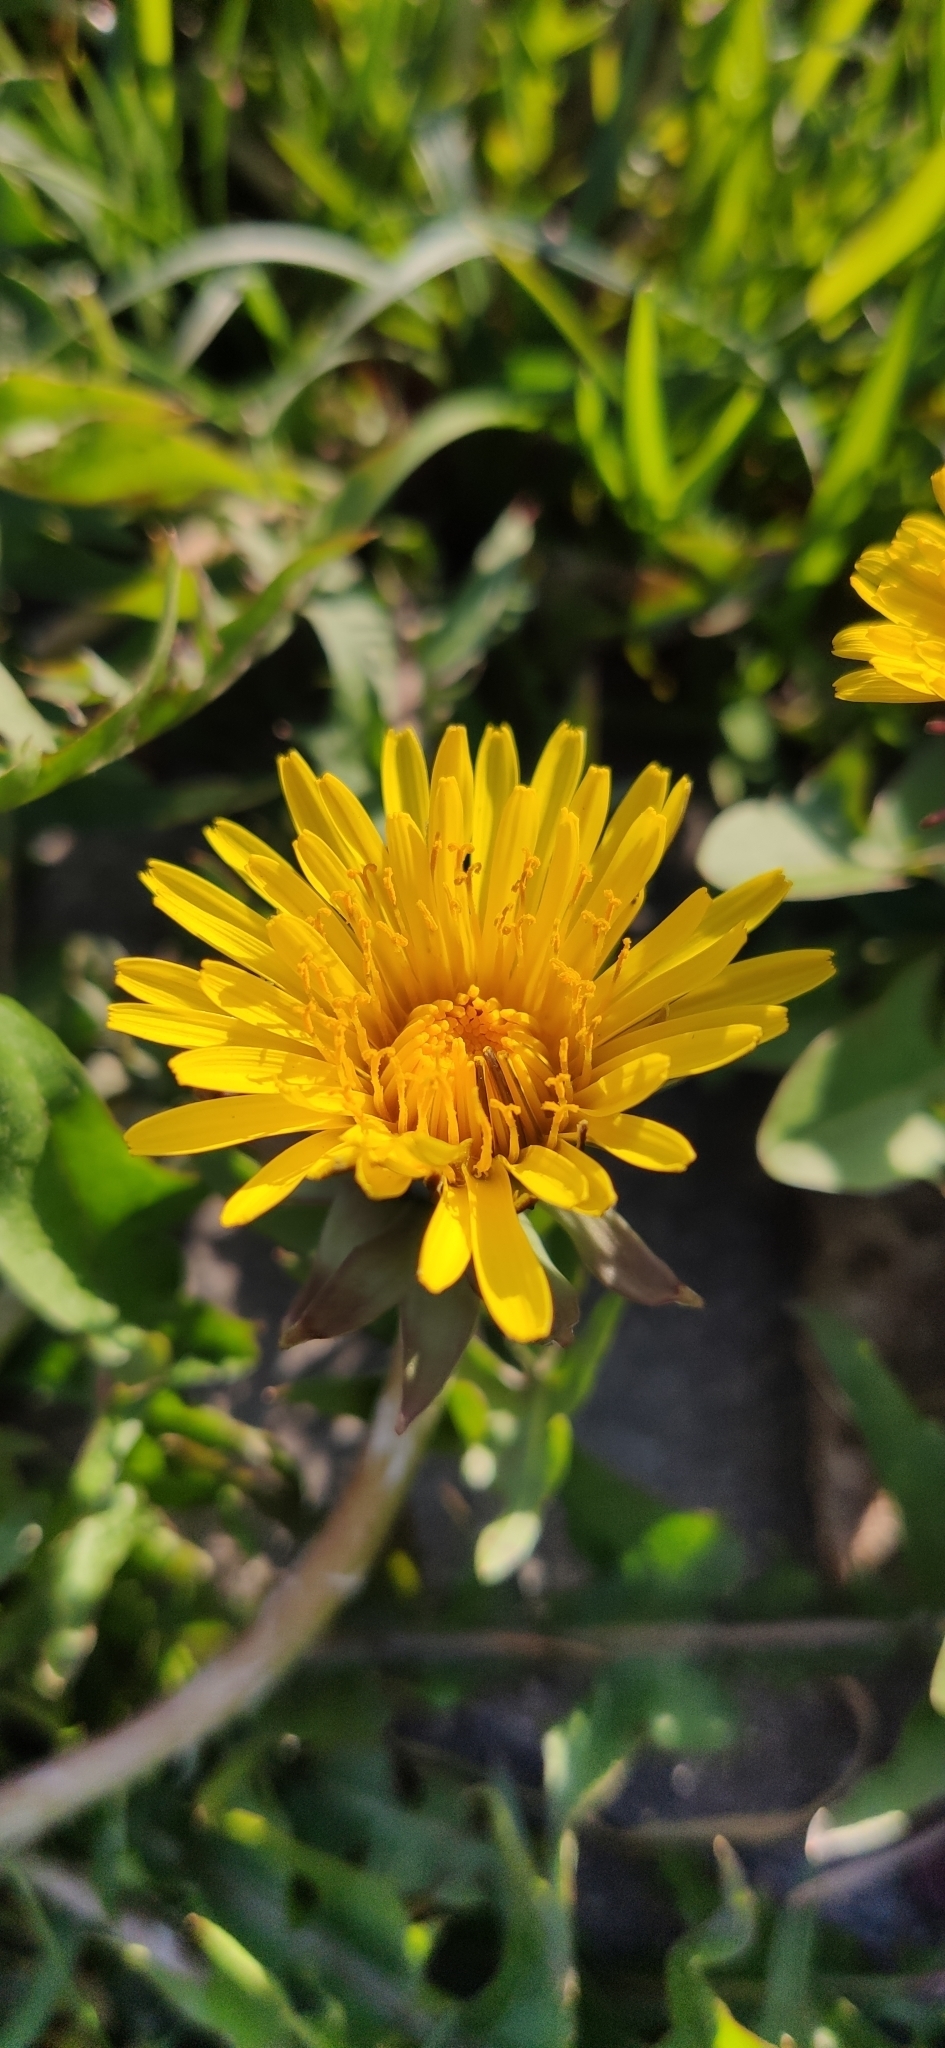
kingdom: Plantae
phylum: Tracheophyta
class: Magnoliopsida
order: Asterales
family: Asteraceae
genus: Taraxacum
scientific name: Taraxacum officinale
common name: Common dandelion
